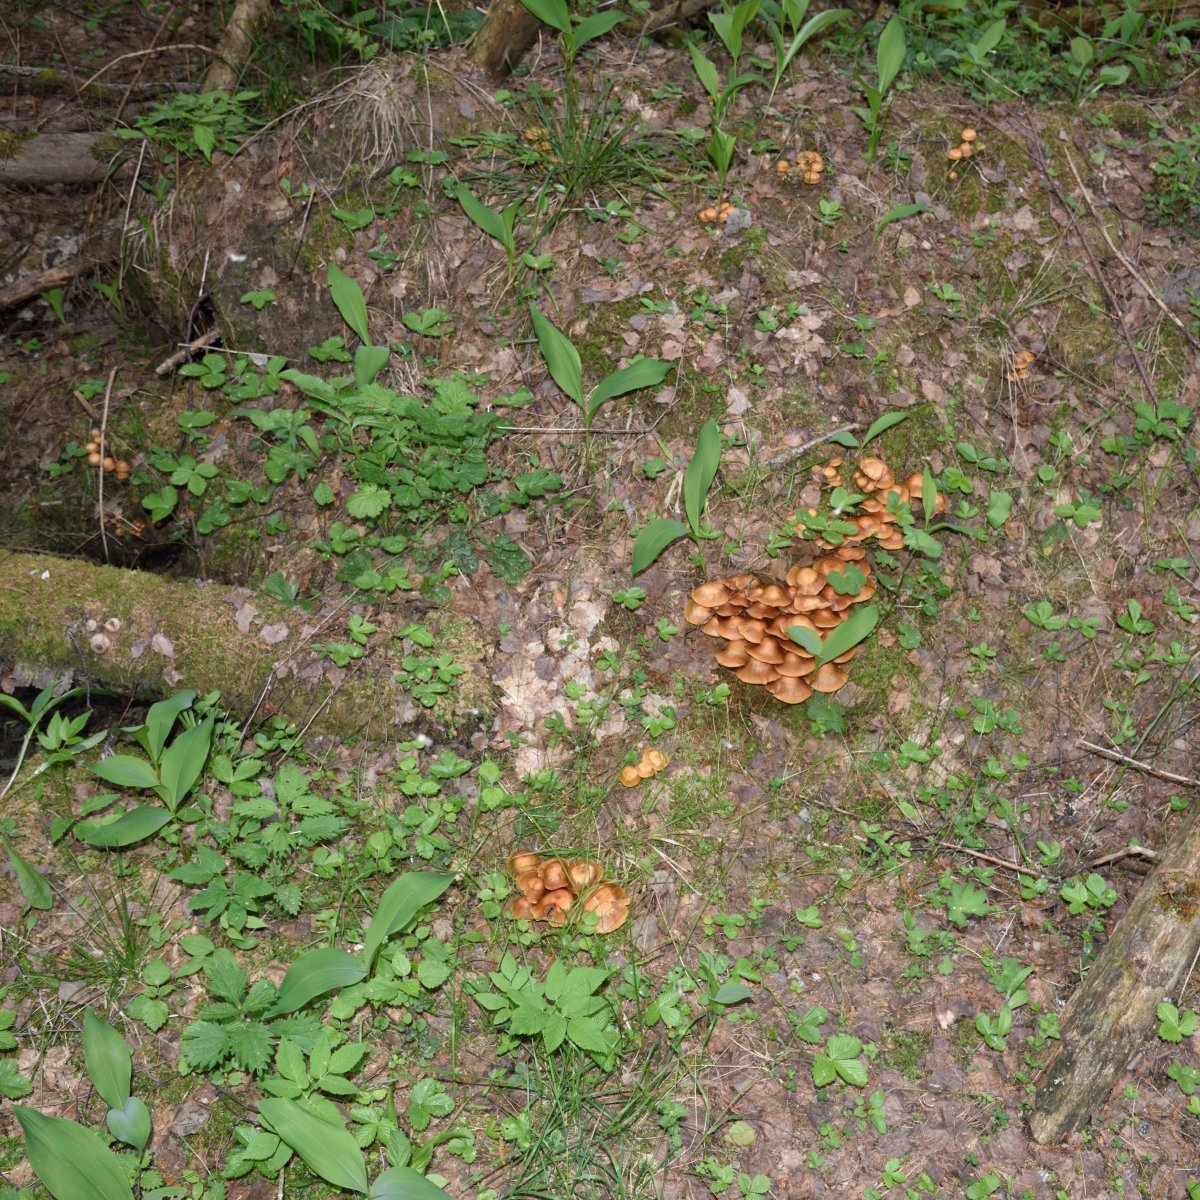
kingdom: Fungi
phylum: Basidiomycota
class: Agaricomycetes
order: Agaricales
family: Strophariaceae
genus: Kuehneromyces
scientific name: Kuehneromyces mutabilis
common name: Sheathed woodtuft
